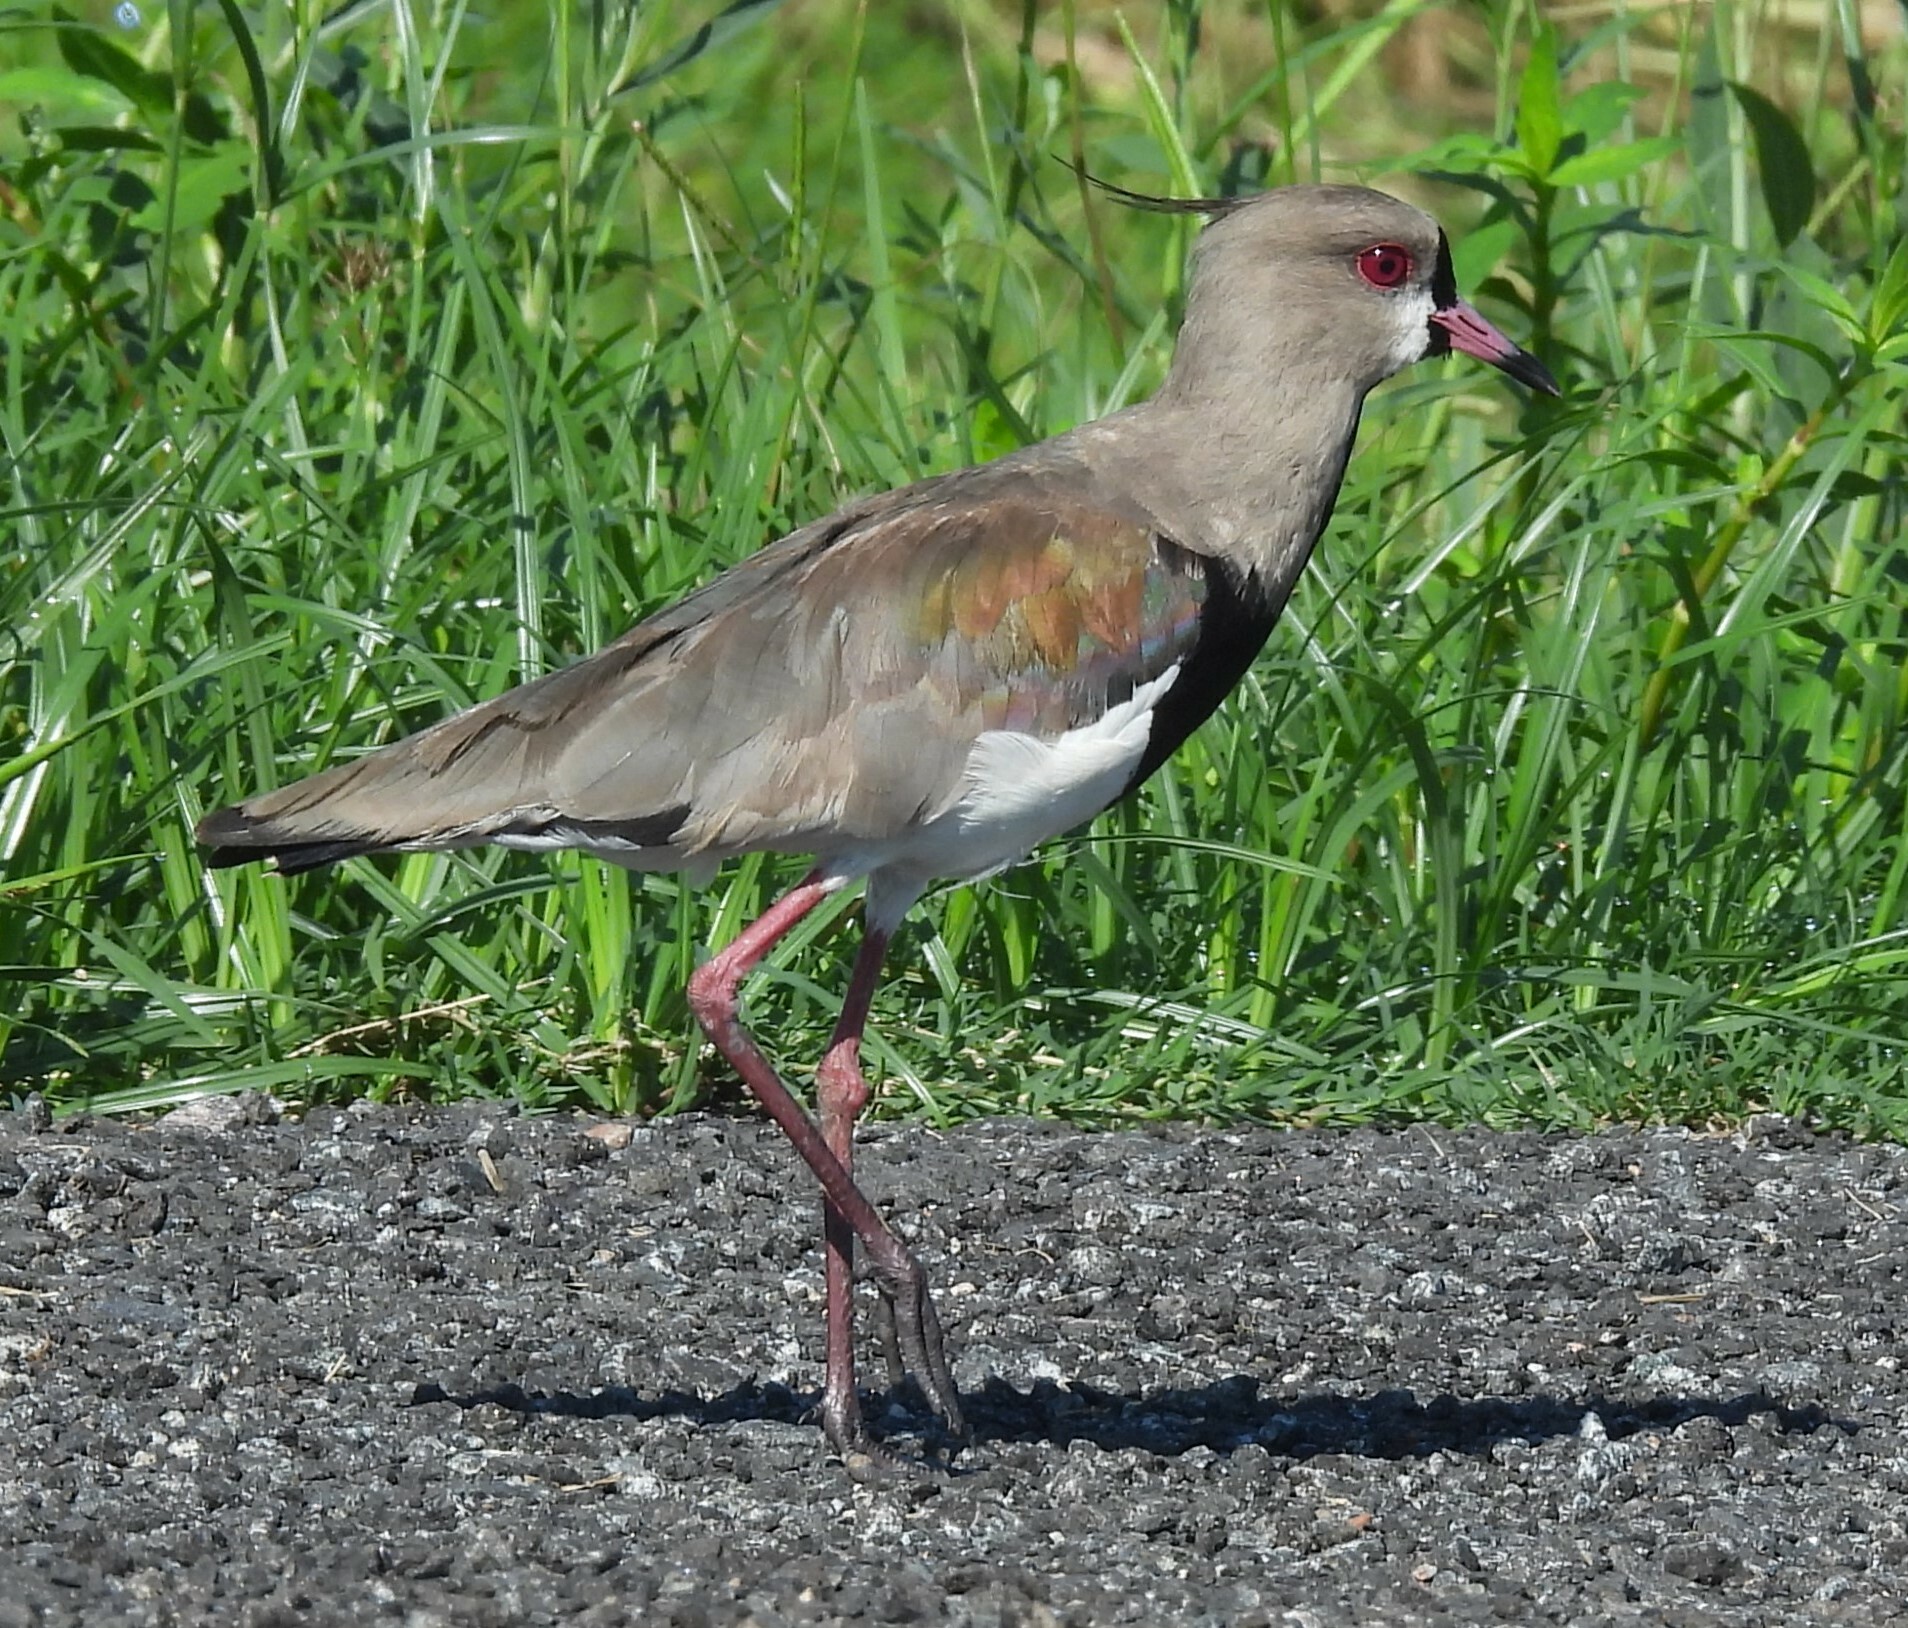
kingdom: Animalia
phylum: Chordata
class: Aves
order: Charadriiformes
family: Charadriidae
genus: Vanellus
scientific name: Vanellus chilensis
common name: Southern lapwing
